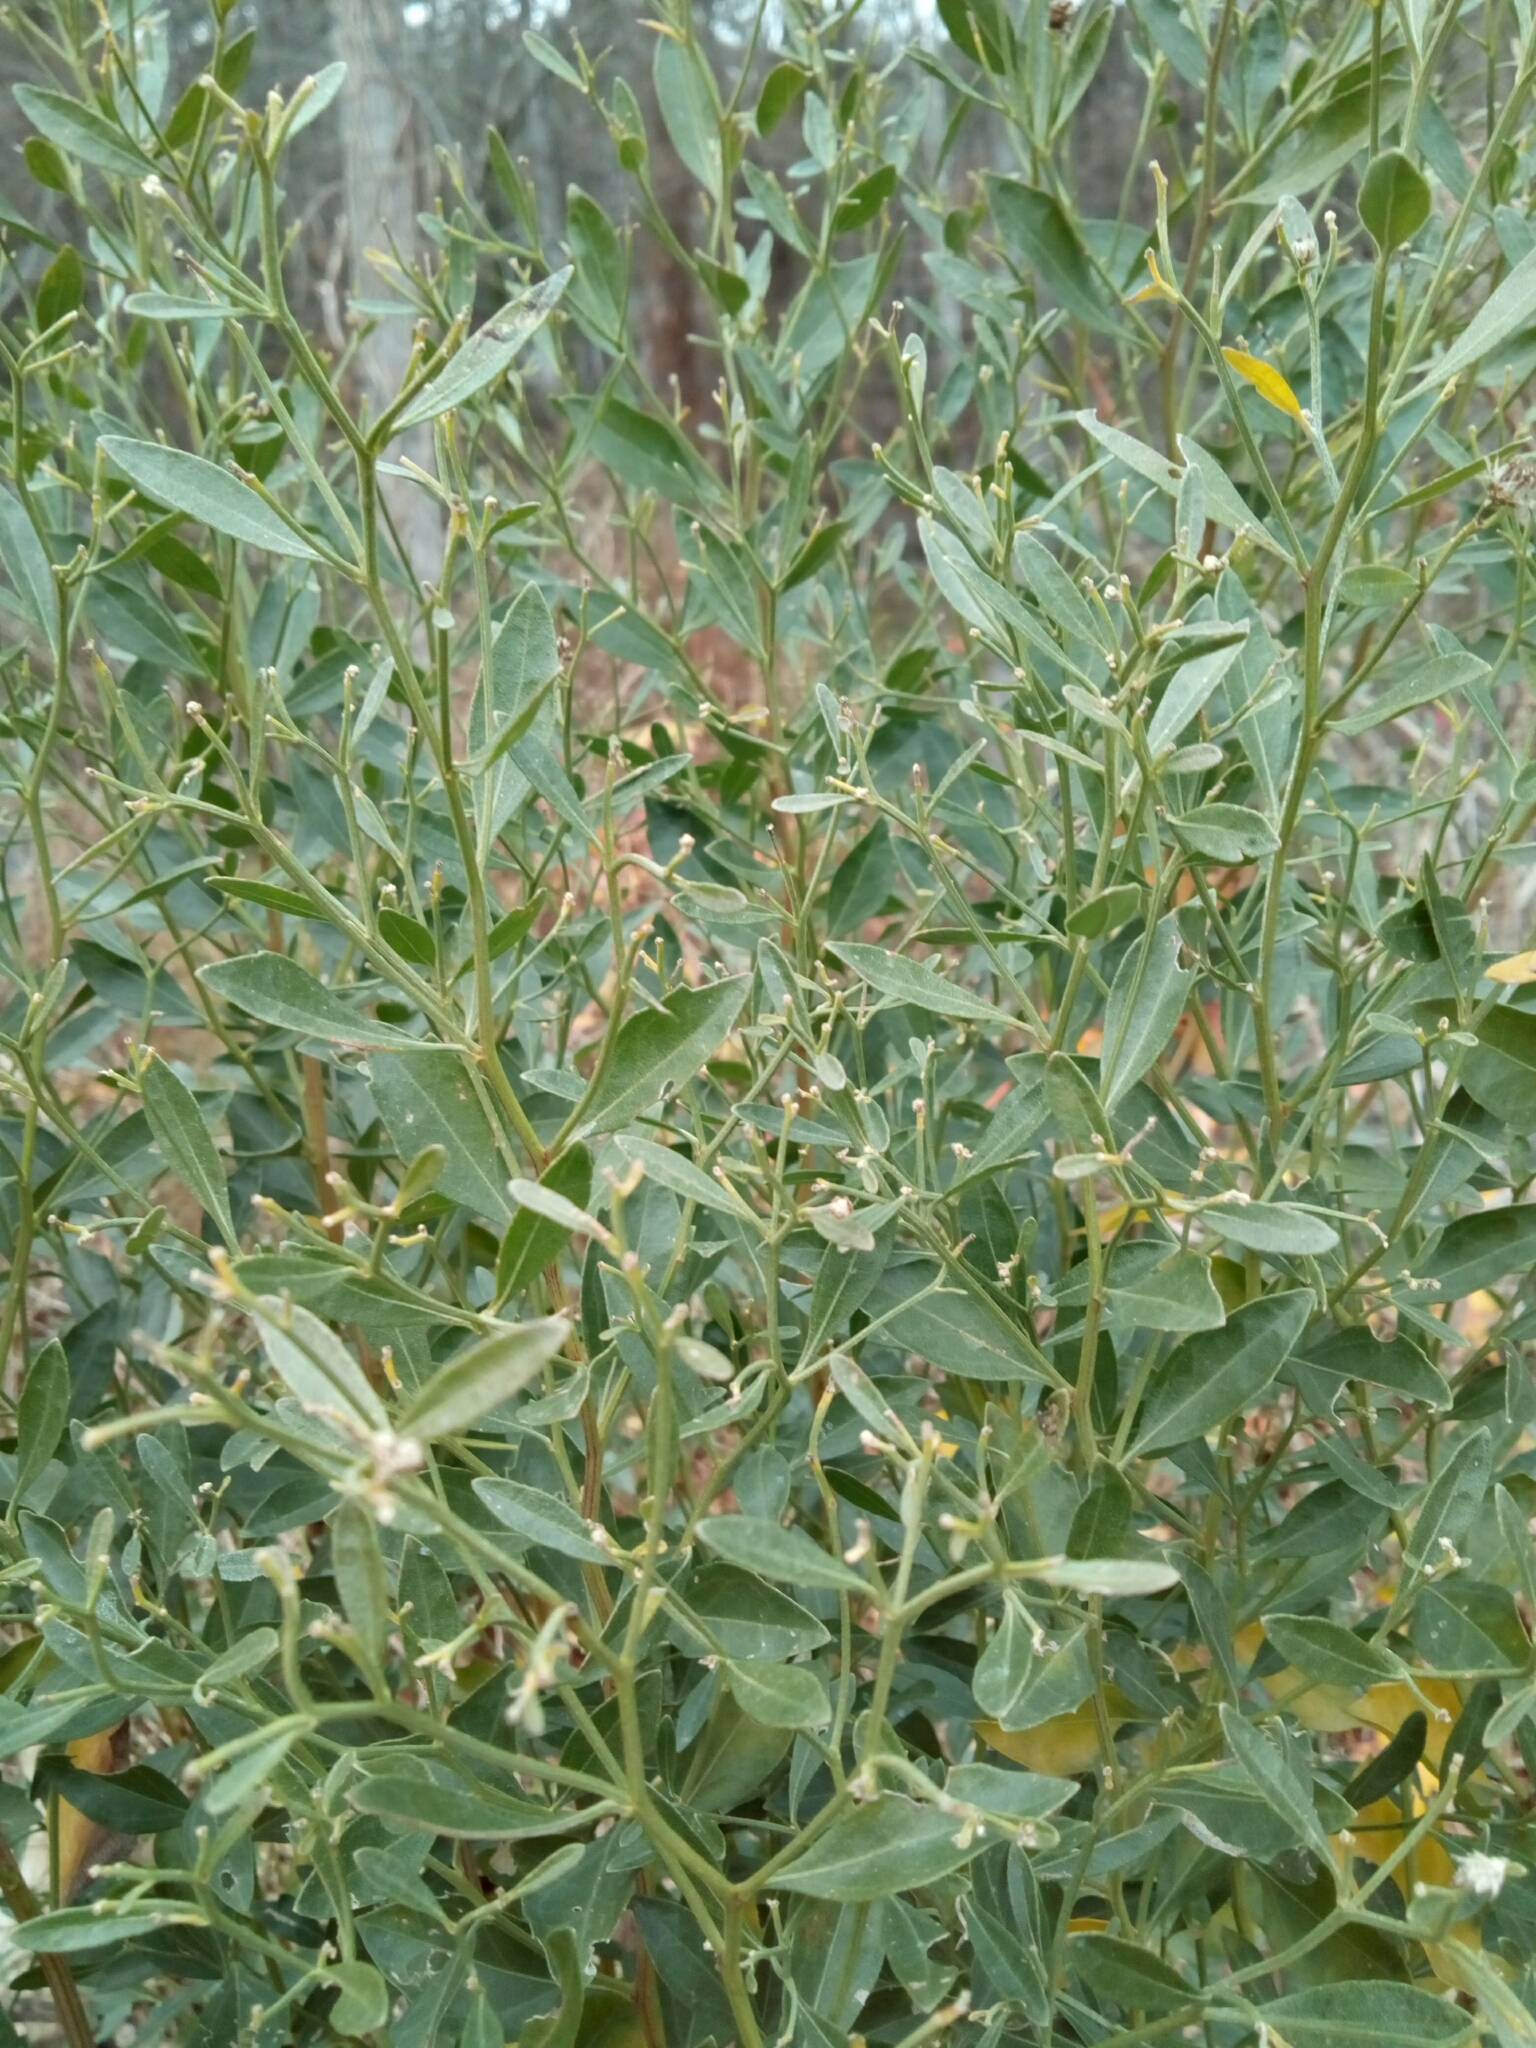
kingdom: Plantae
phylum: Tracheophyta
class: Magnoliopsida
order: Asterales
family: Asteraceae
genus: Baccharis
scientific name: Baccharis halimifolia
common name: Eastern baccharis
